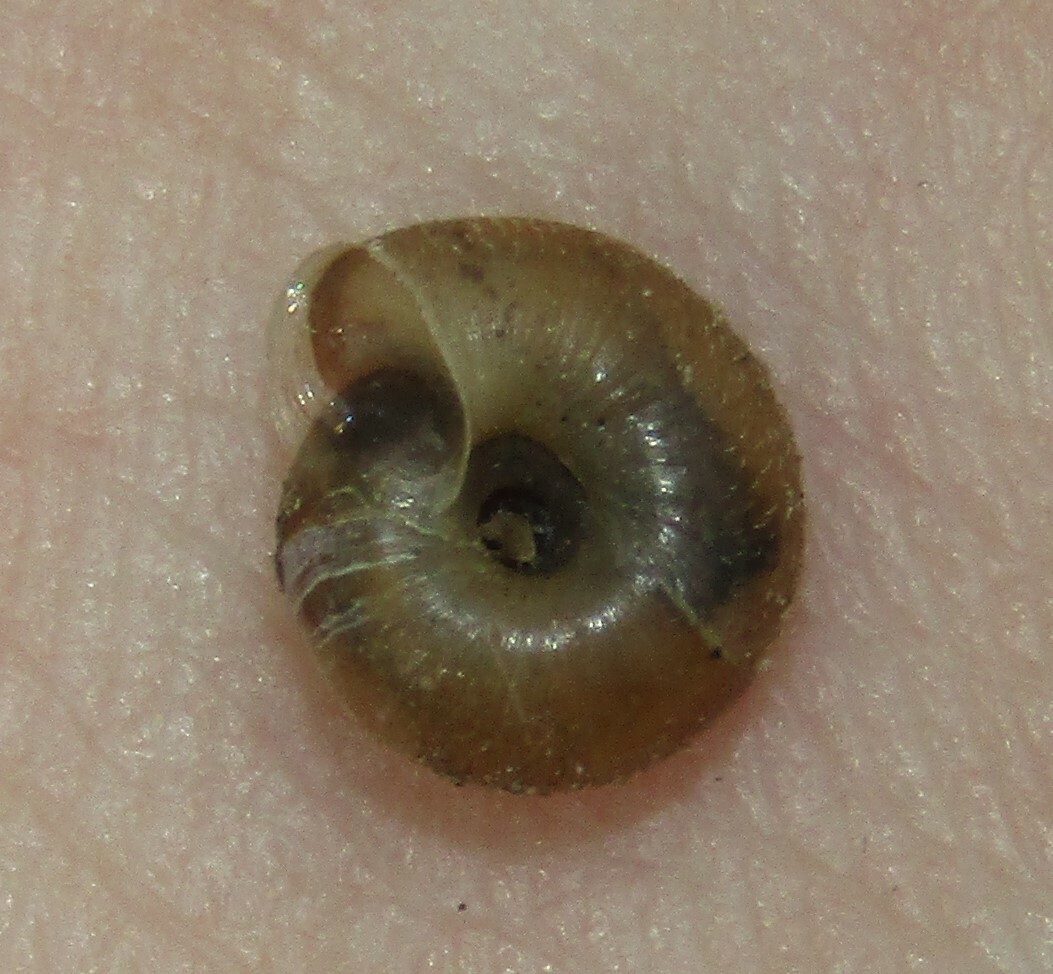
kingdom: Animalia
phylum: Mollusca
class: Gastropoda
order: Stylommatophora
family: Hygromiidae
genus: Trochulus
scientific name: Trochulus hispidus
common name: Hairy snail
